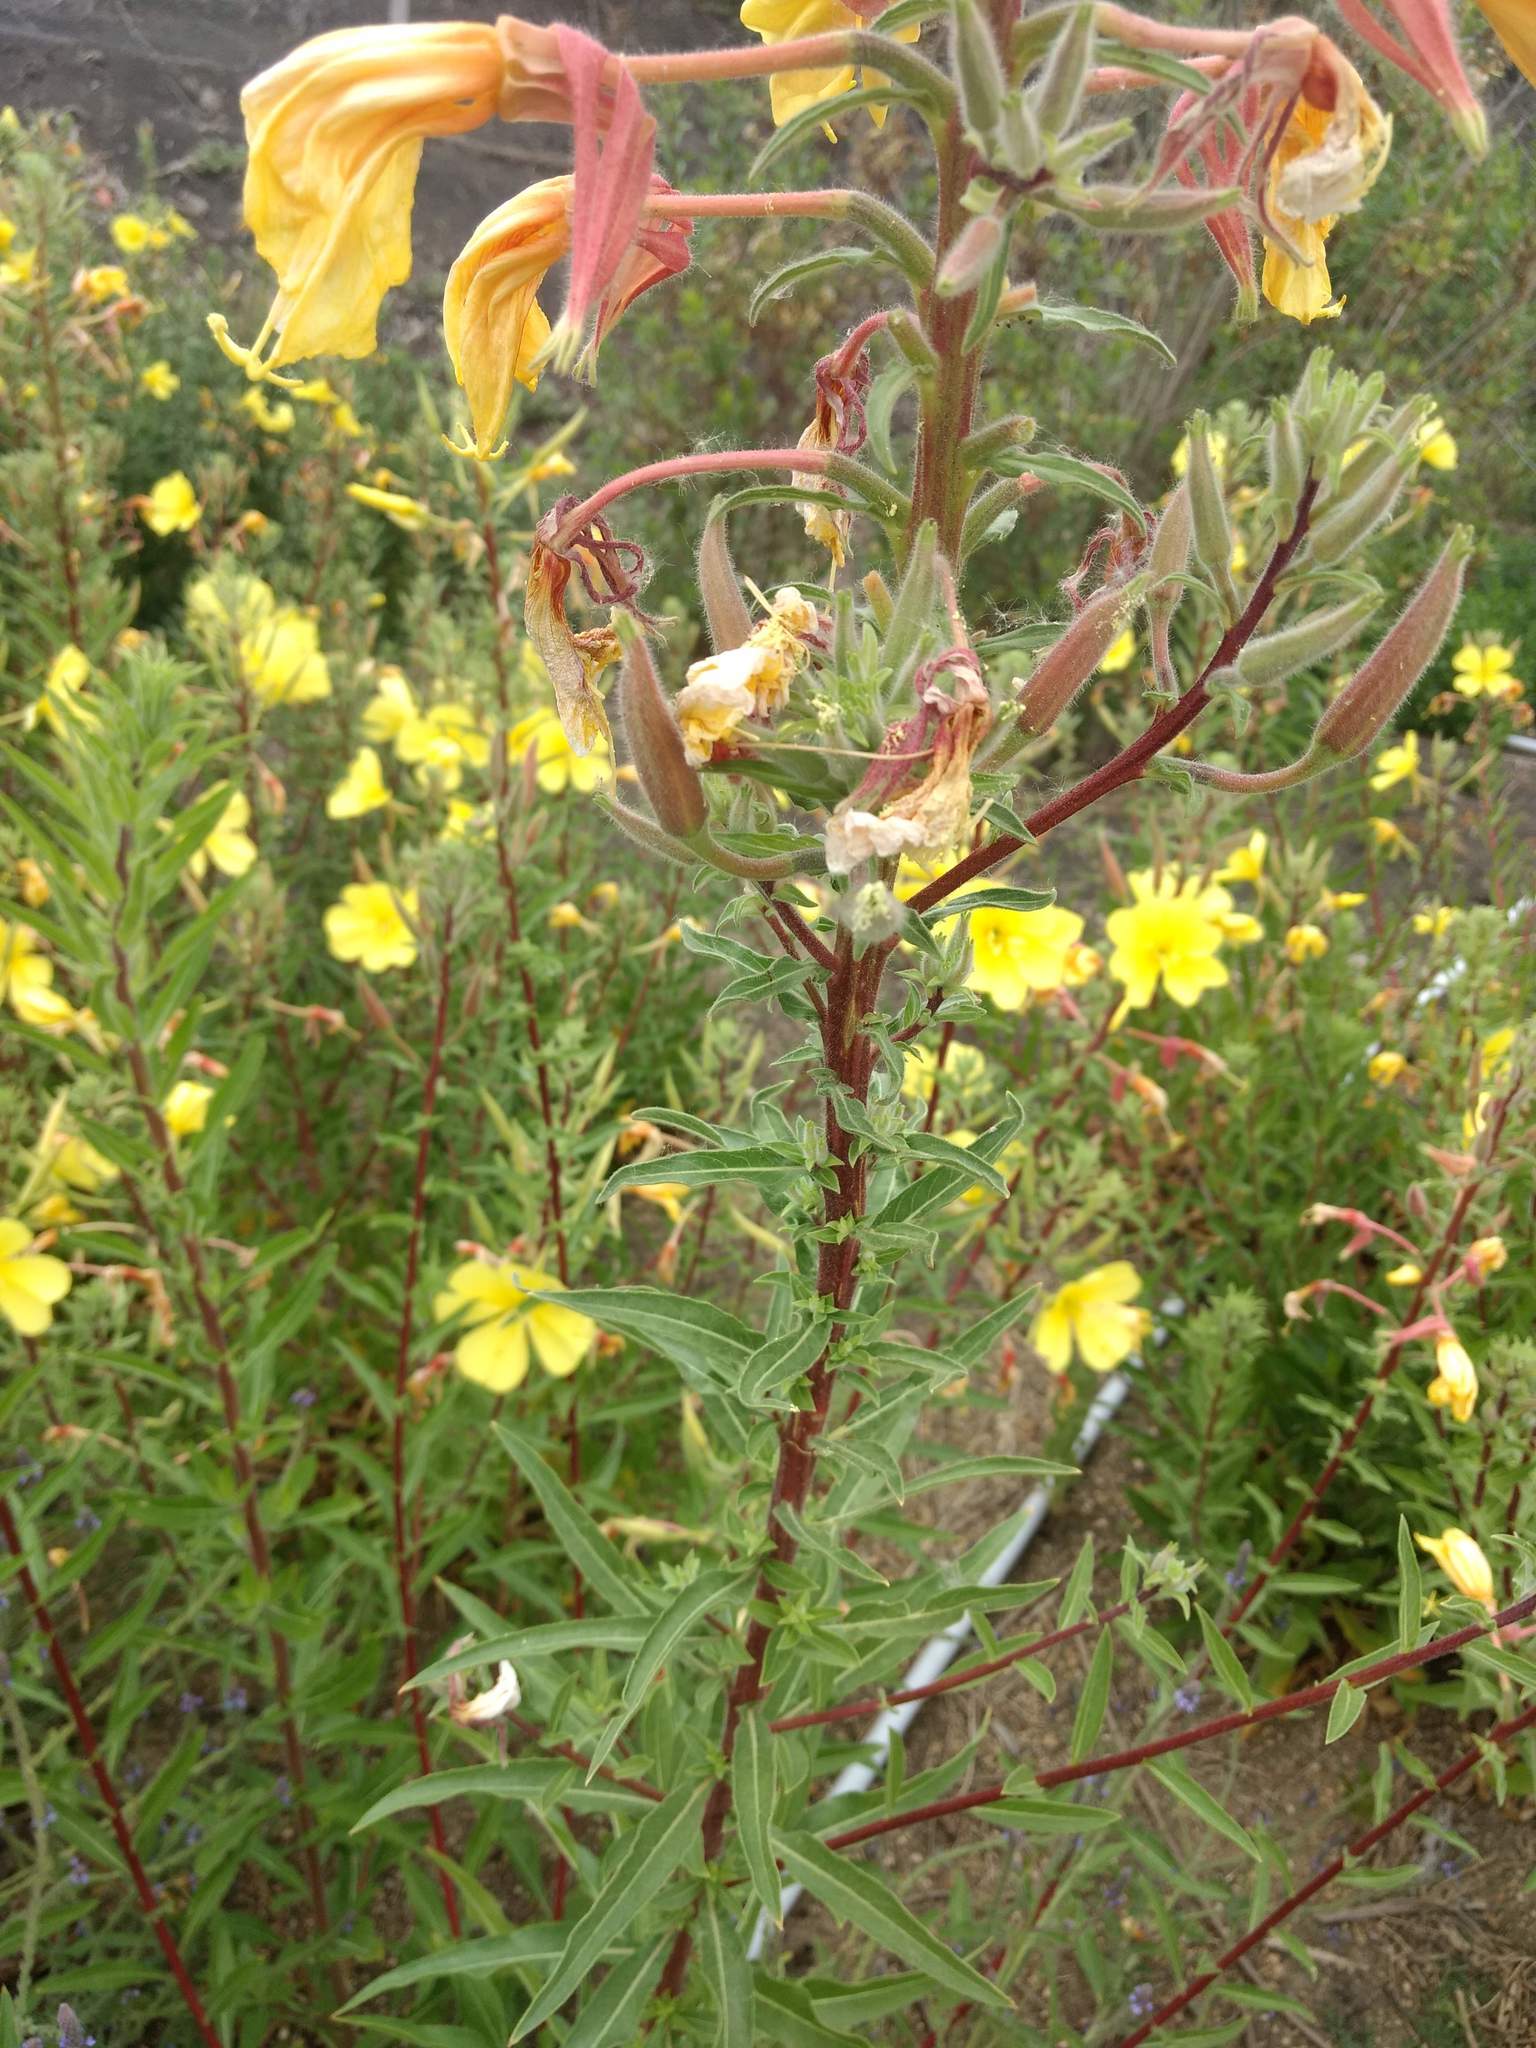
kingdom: Plantae
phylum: Tracheophyta
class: Magnoliopsida
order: Myrtales
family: Onagraceae
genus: Oenothera
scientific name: Oenothera elata
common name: Hooker's evening-primrose
